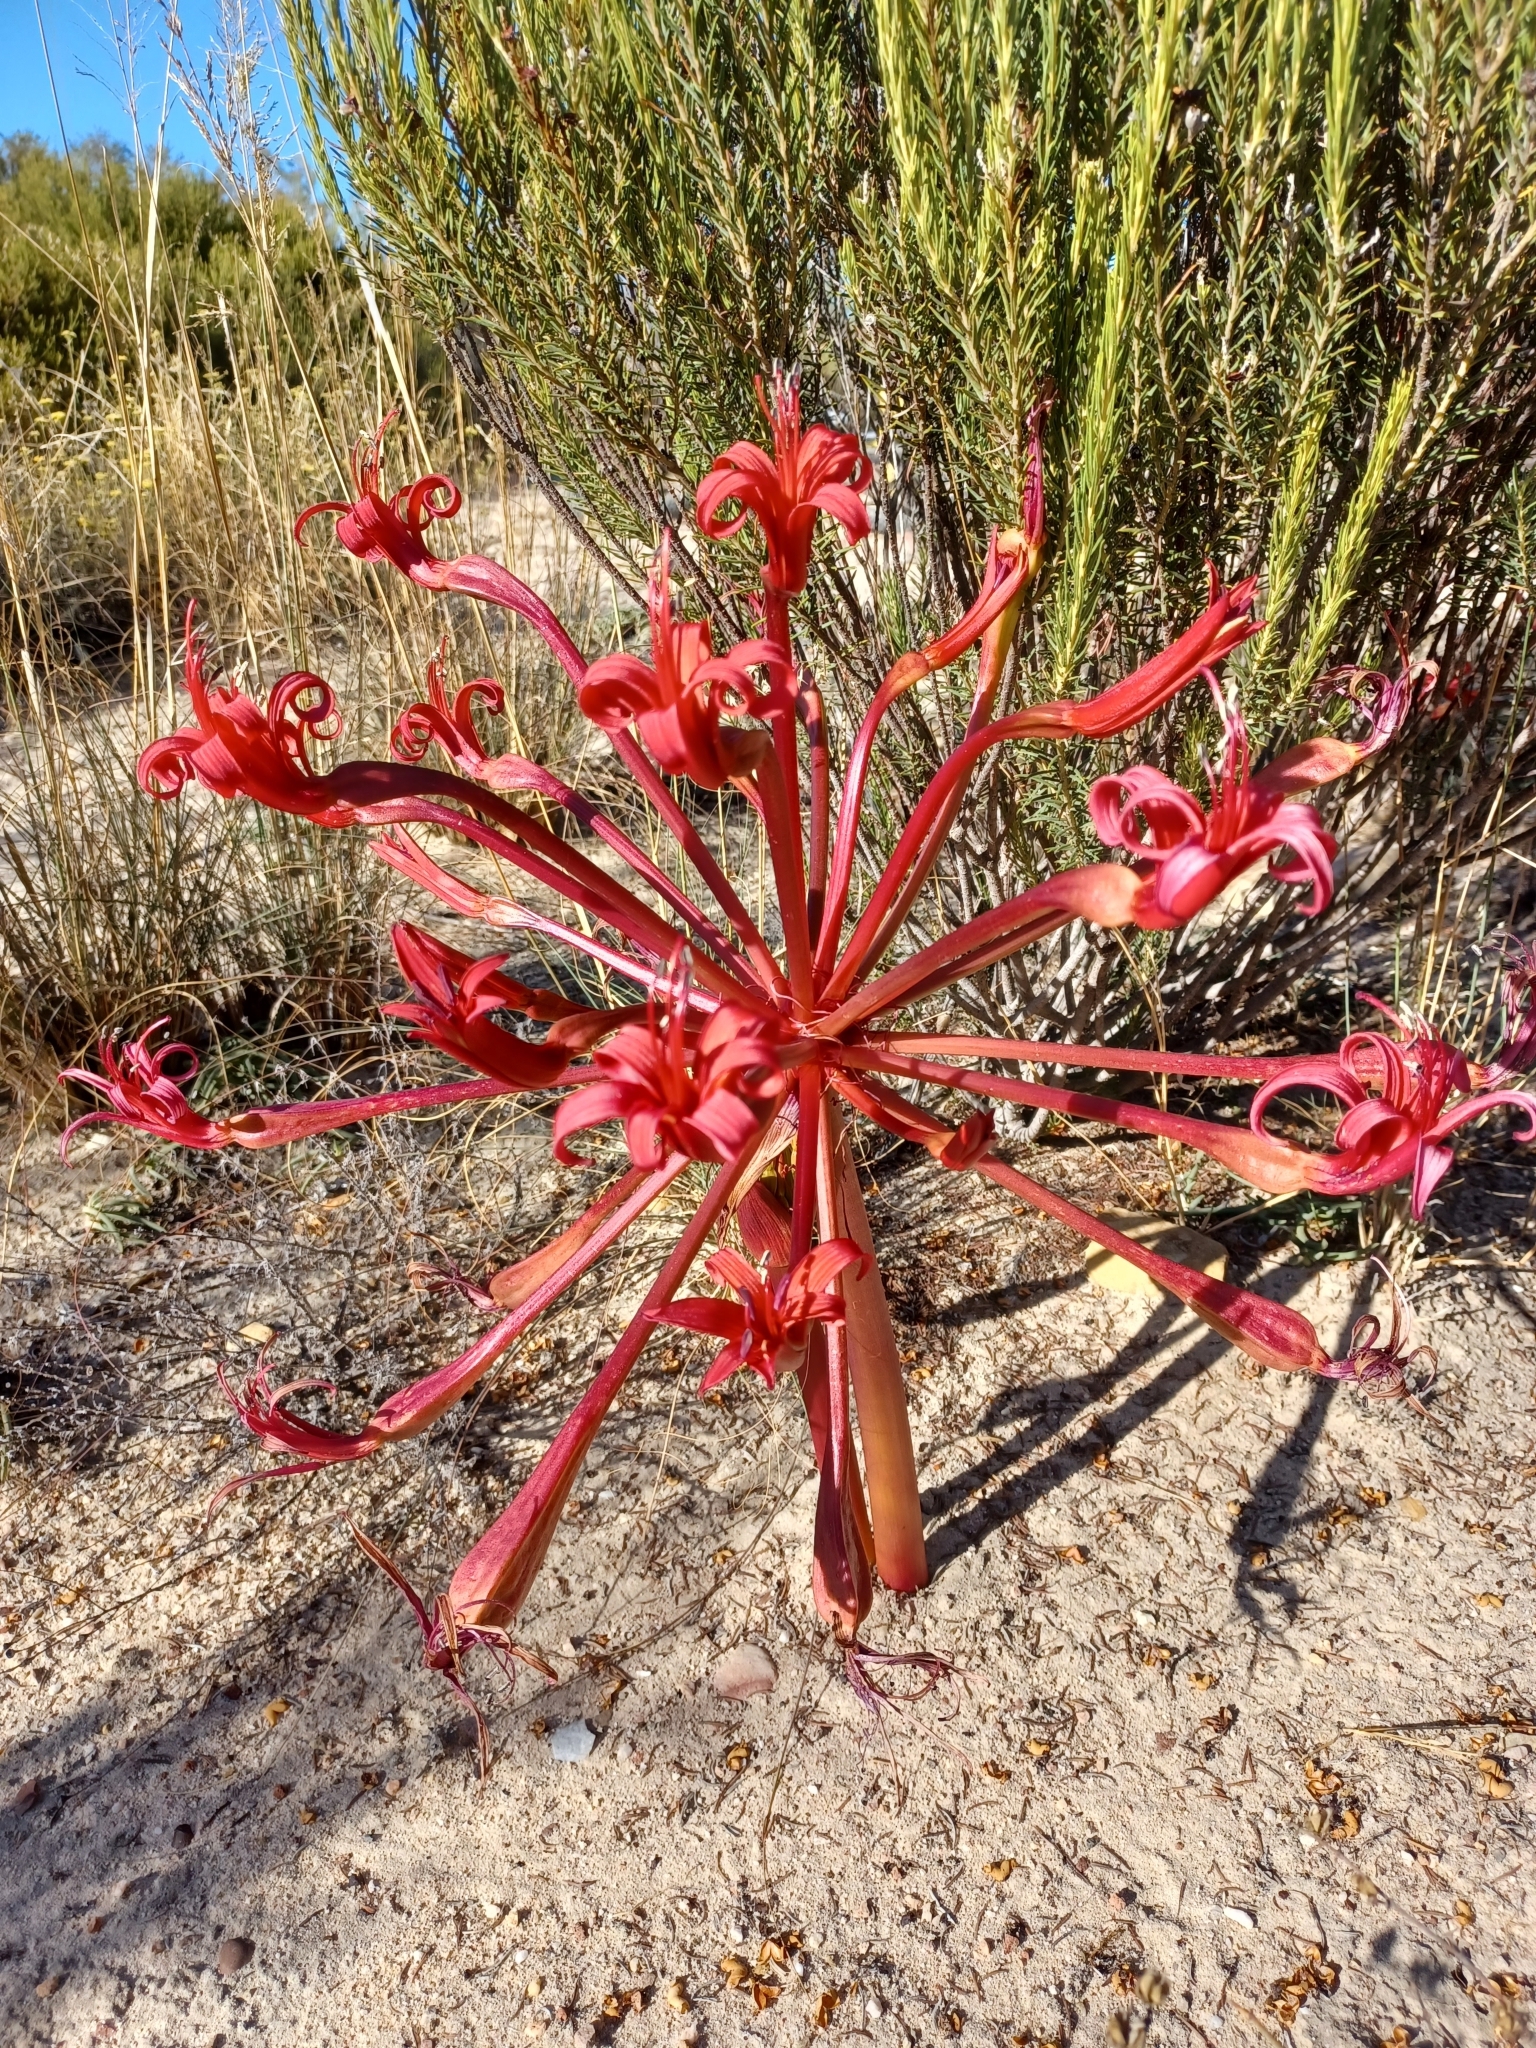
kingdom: Plantae
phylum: Tracheophyta
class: Liliopsida
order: Asparagales
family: Amaryllidaceae
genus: Brunsvigia
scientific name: Brunsvigia orientalis
